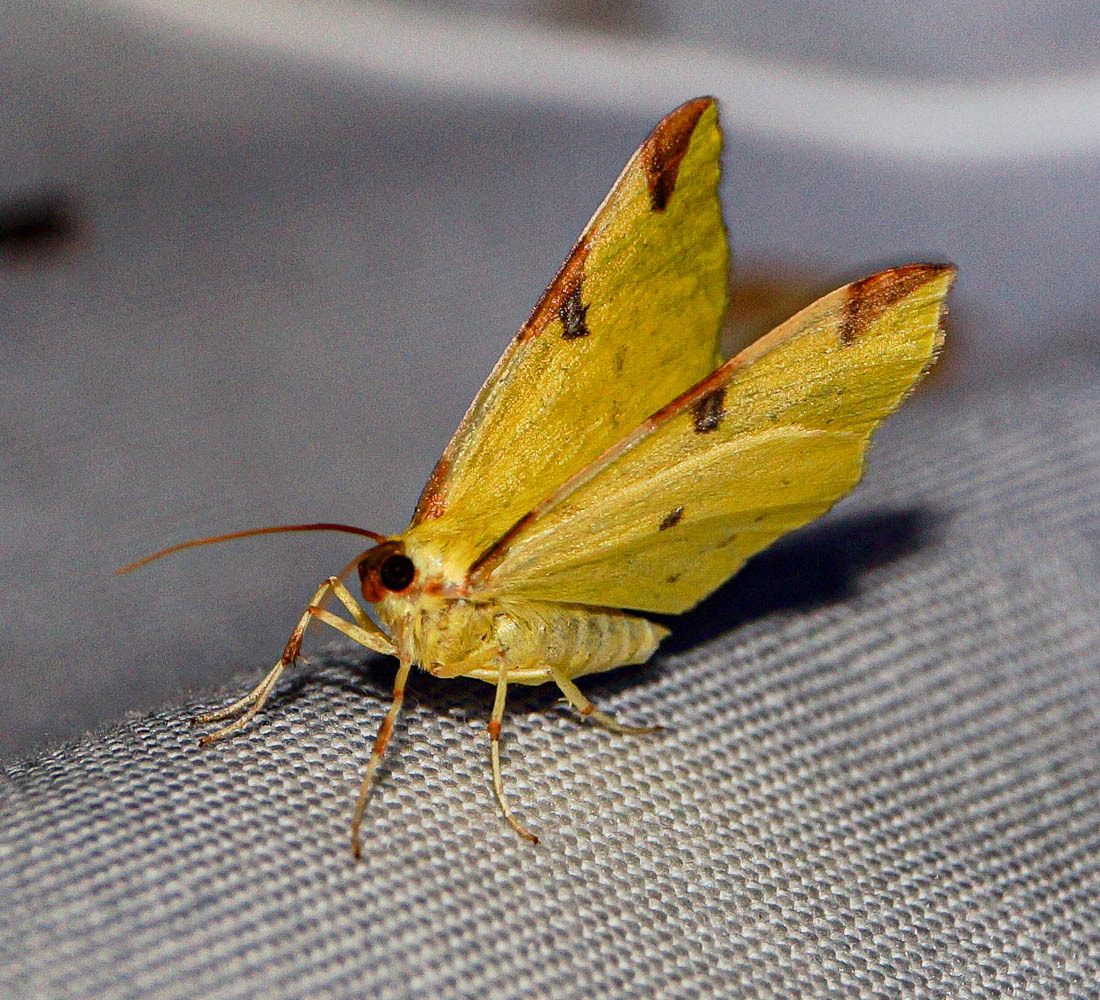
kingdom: Animalia
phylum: Arthropoda
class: Insecta
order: Lepidoptera
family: Geometridae
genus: Opisthograptis
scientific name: Opisthograptis luteolata
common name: Brimstone moth
